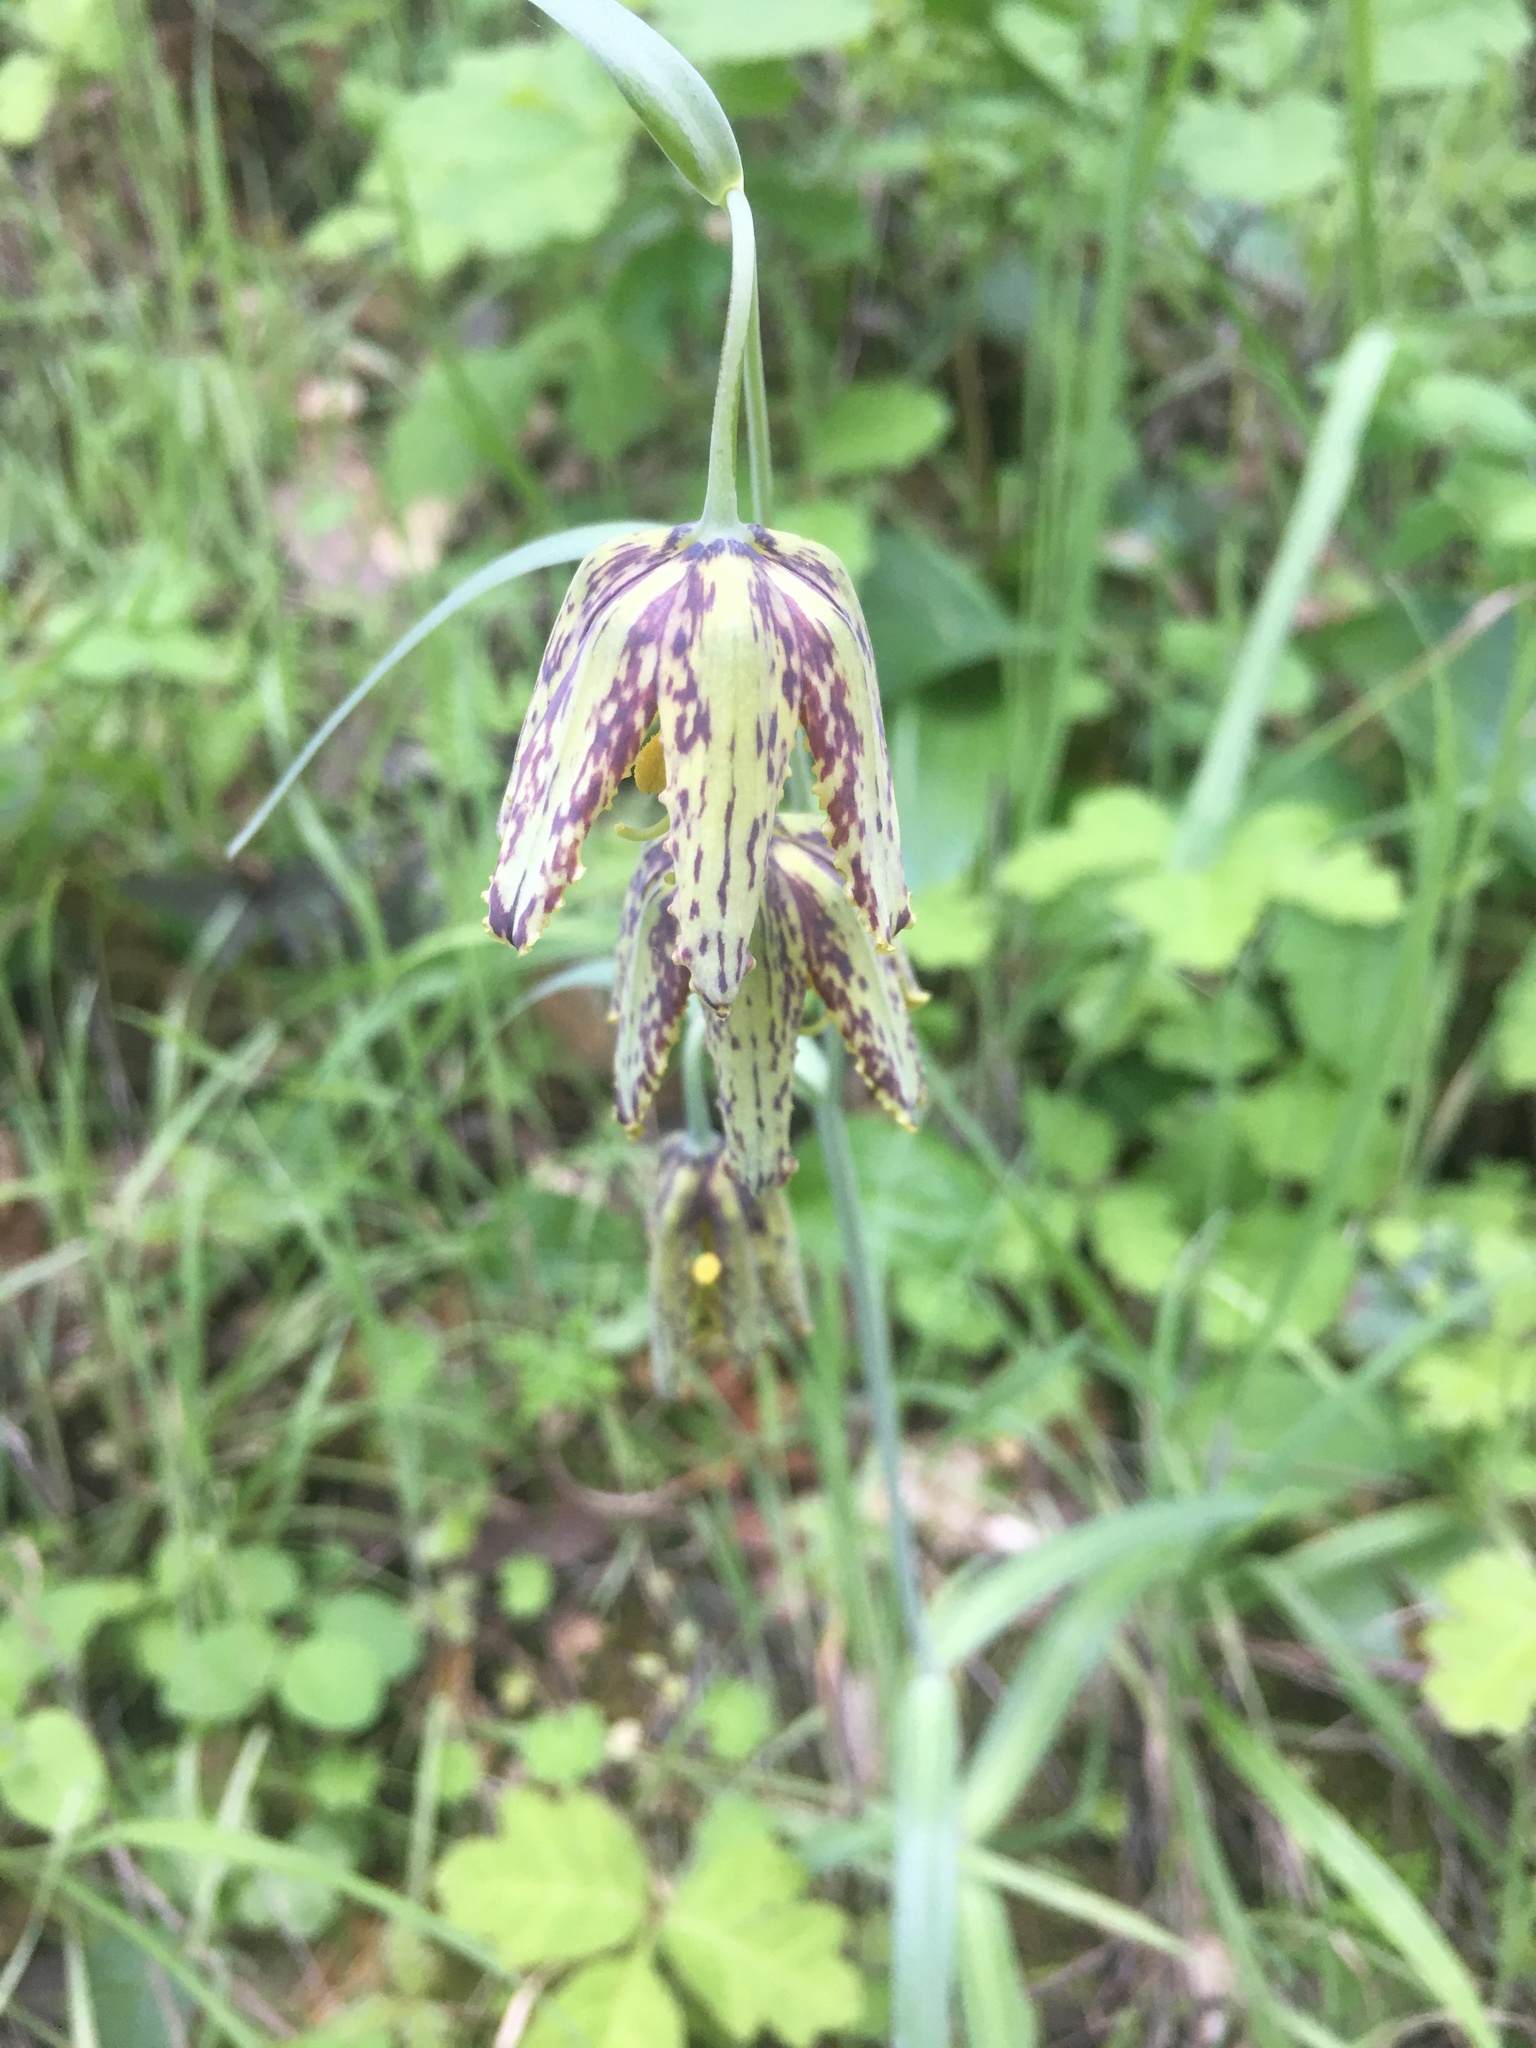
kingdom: Plantae
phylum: Tracheophyta
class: Liliopsida
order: Liliales
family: Liliaceae
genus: Fritillaria
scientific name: Fritillaria affinis
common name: Ojai fritillary
